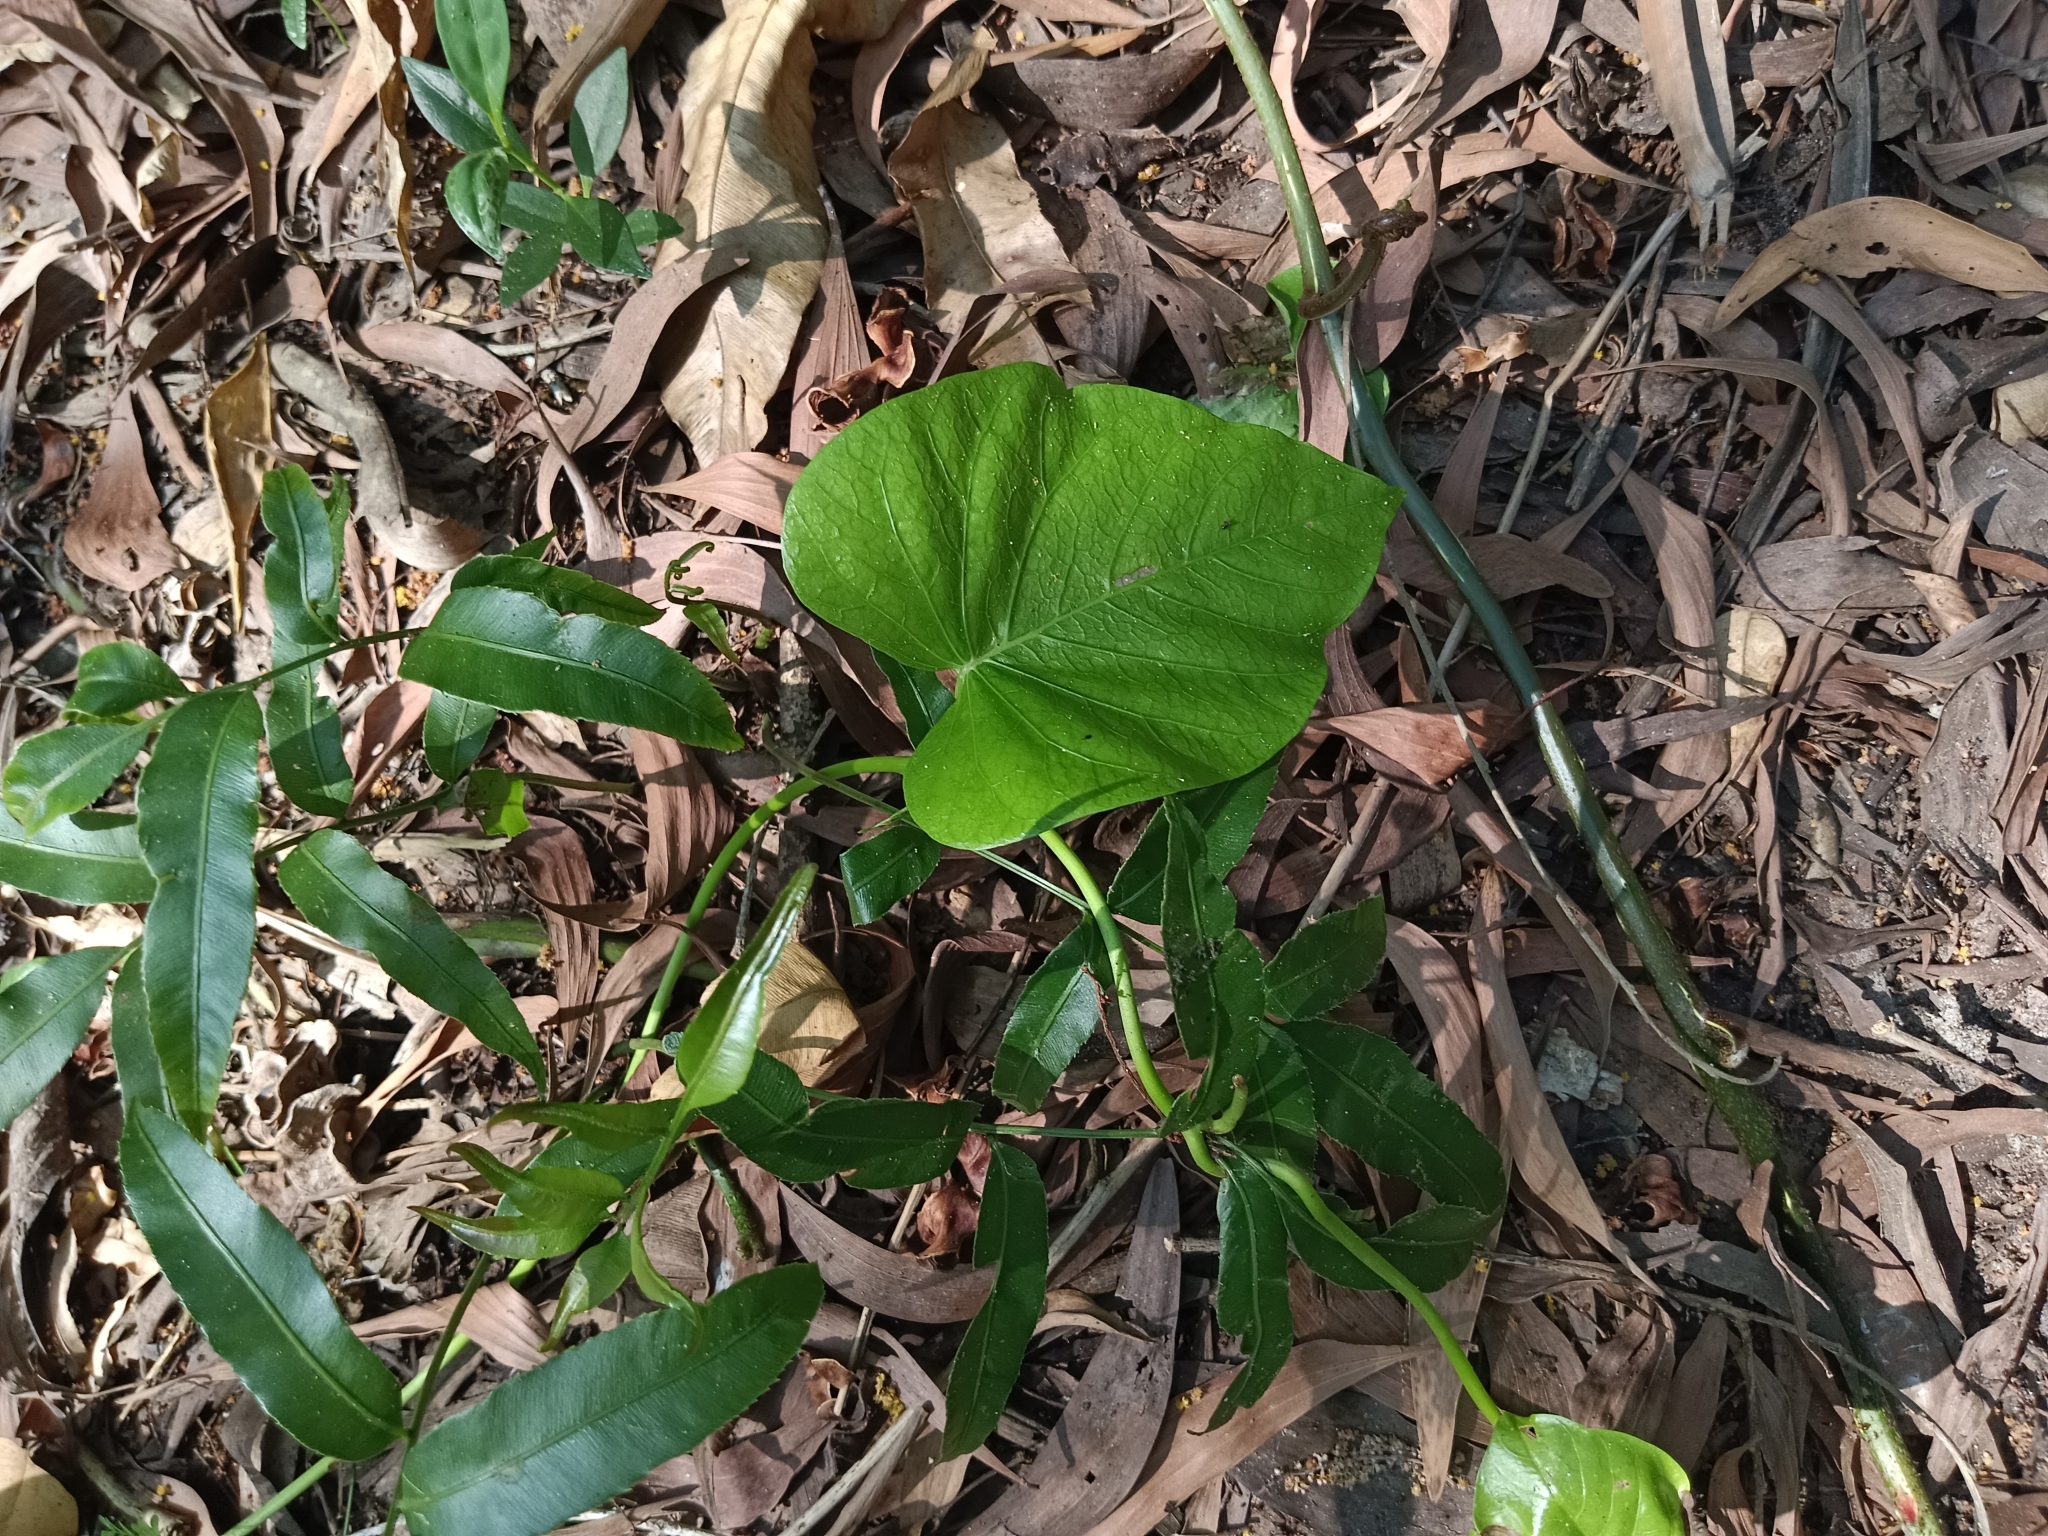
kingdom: Plantae
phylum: Tracheophyta
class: Magnoliopsida
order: Solanales
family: Convolvulaceae
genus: Ipomoea
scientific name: Ipomoea violacea
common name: Beach moonflower
